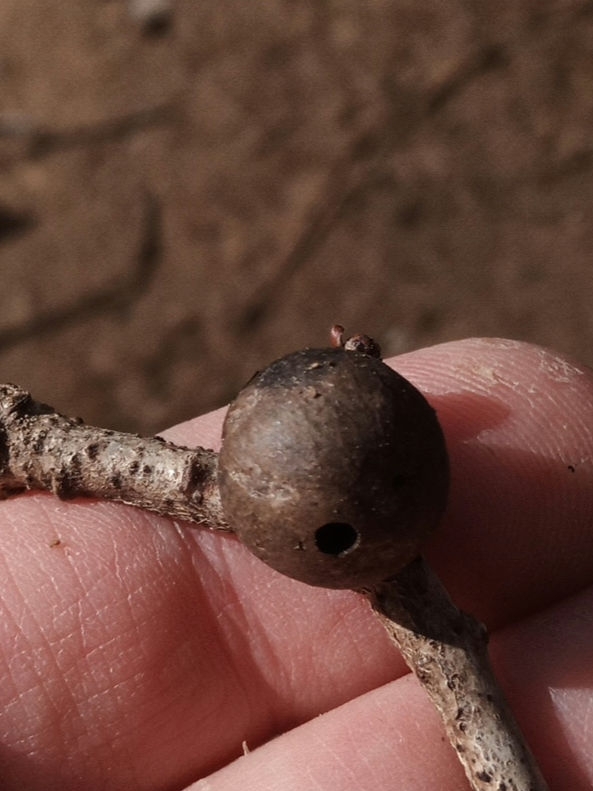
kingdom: Animalia
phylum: Arthropoda
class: Insecta
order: Hymenoptera
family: Cynipidae
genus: Disholcaspis
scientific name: Disholcaspis quercusglobulus
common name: Round bullet gall wasp
